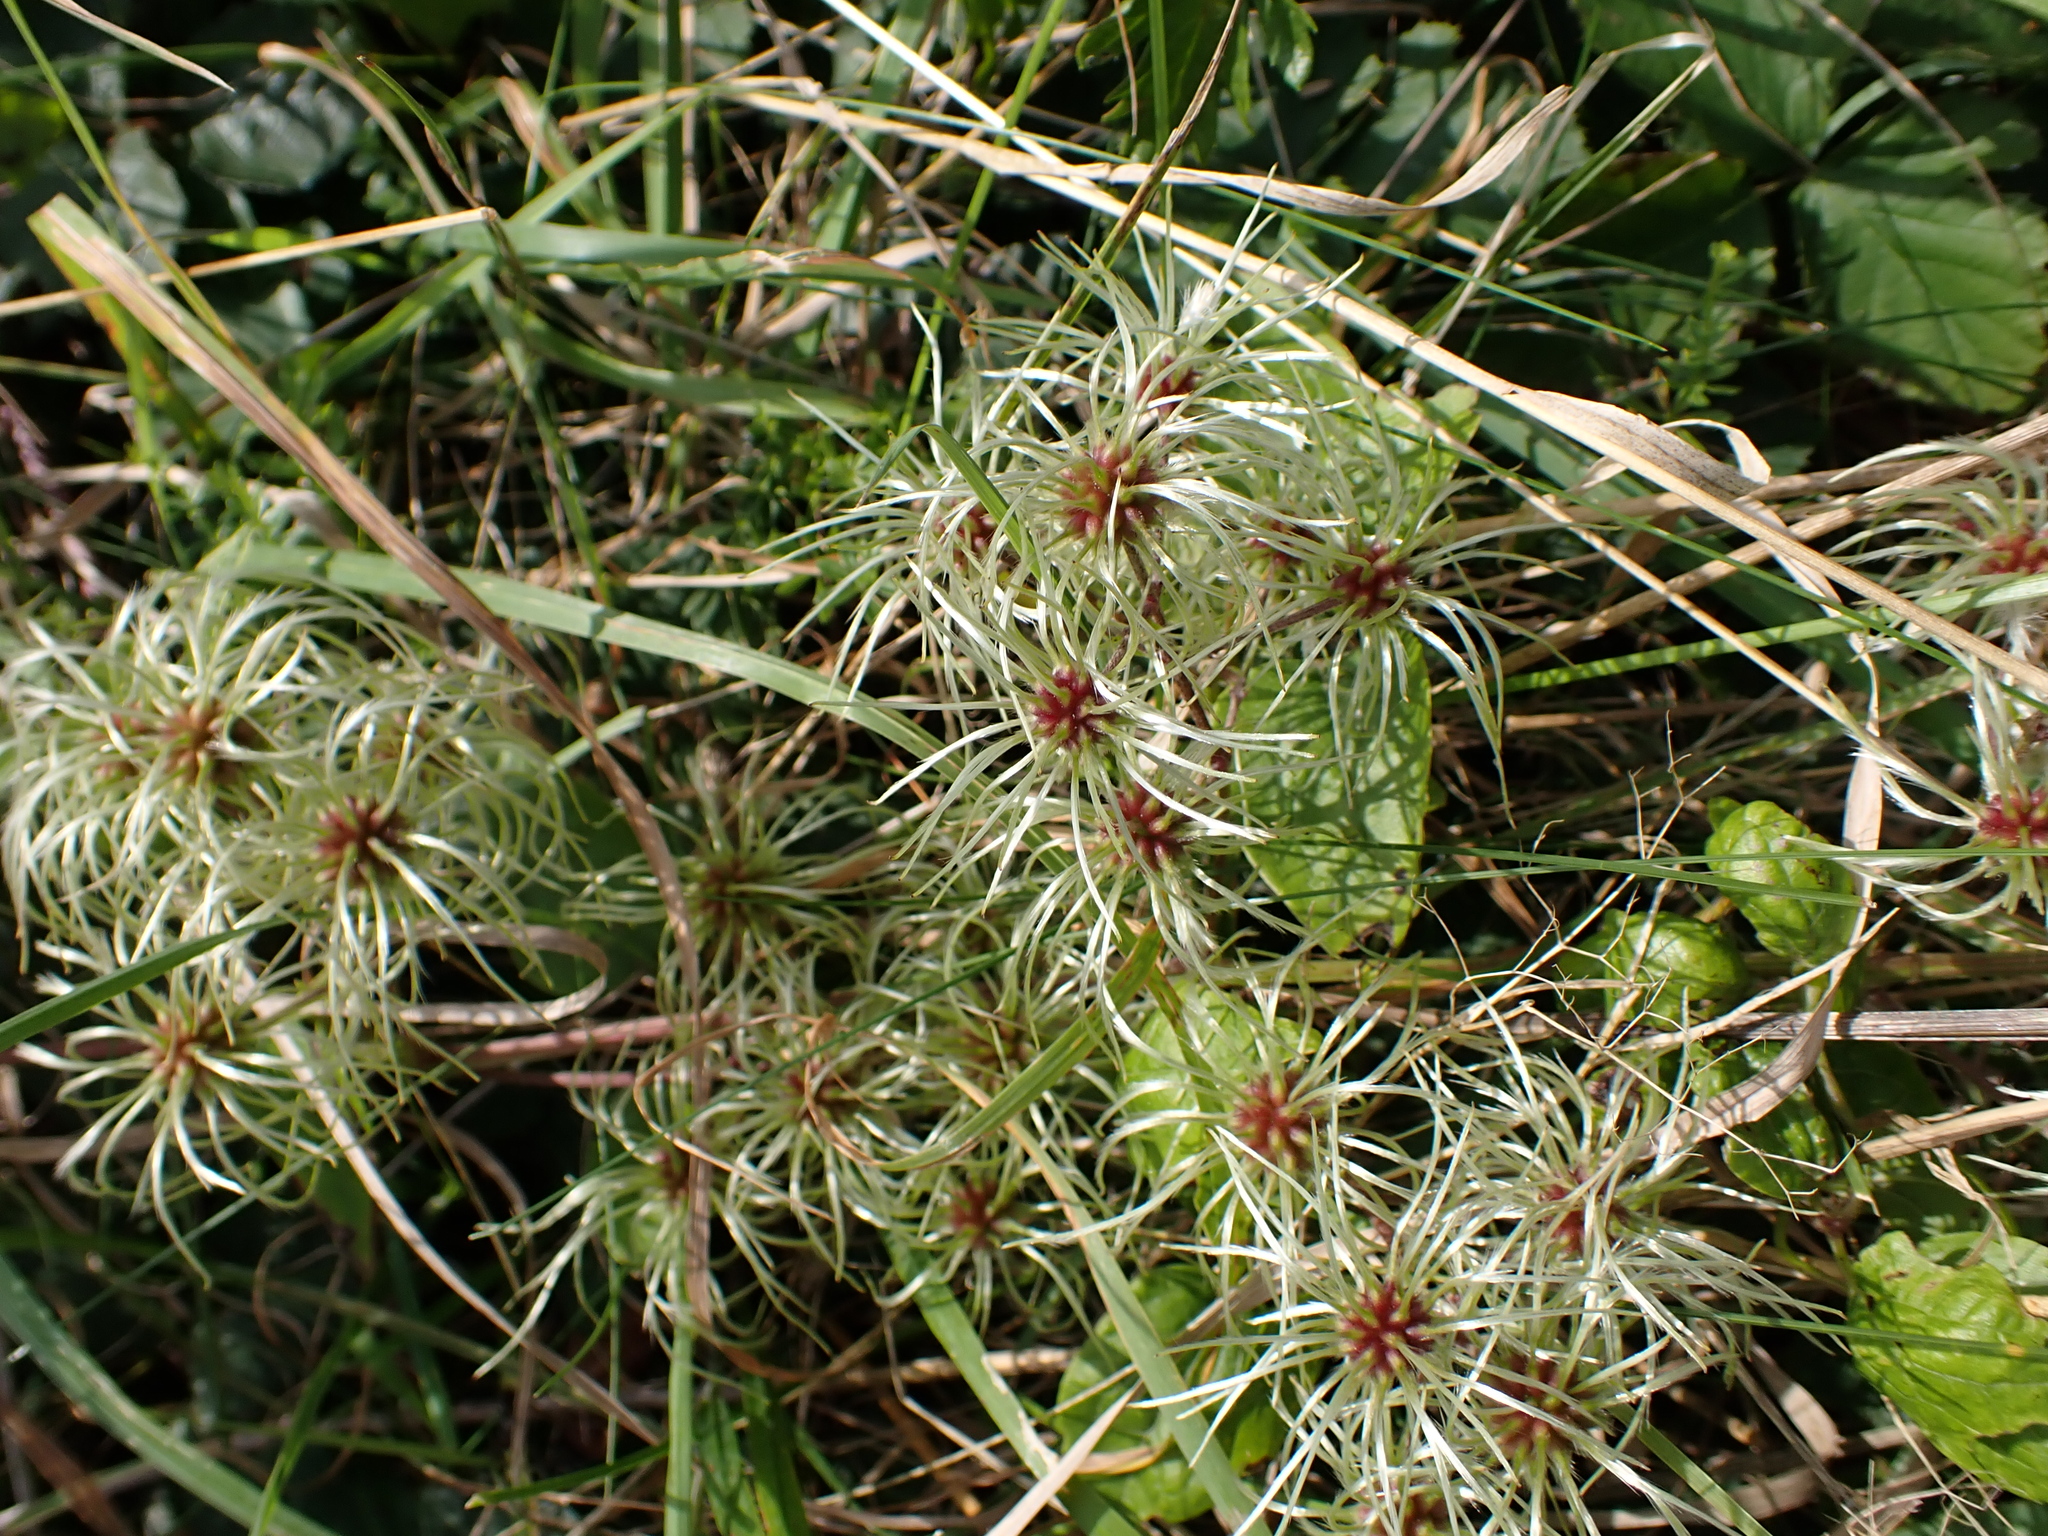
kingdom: Plantae
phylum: Tracheophyta
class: Magnoliopsida
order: Ranunculales
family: Ranunculaceae
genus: Clematis
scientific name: Clematis vitalba
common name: Evergreen clematis
